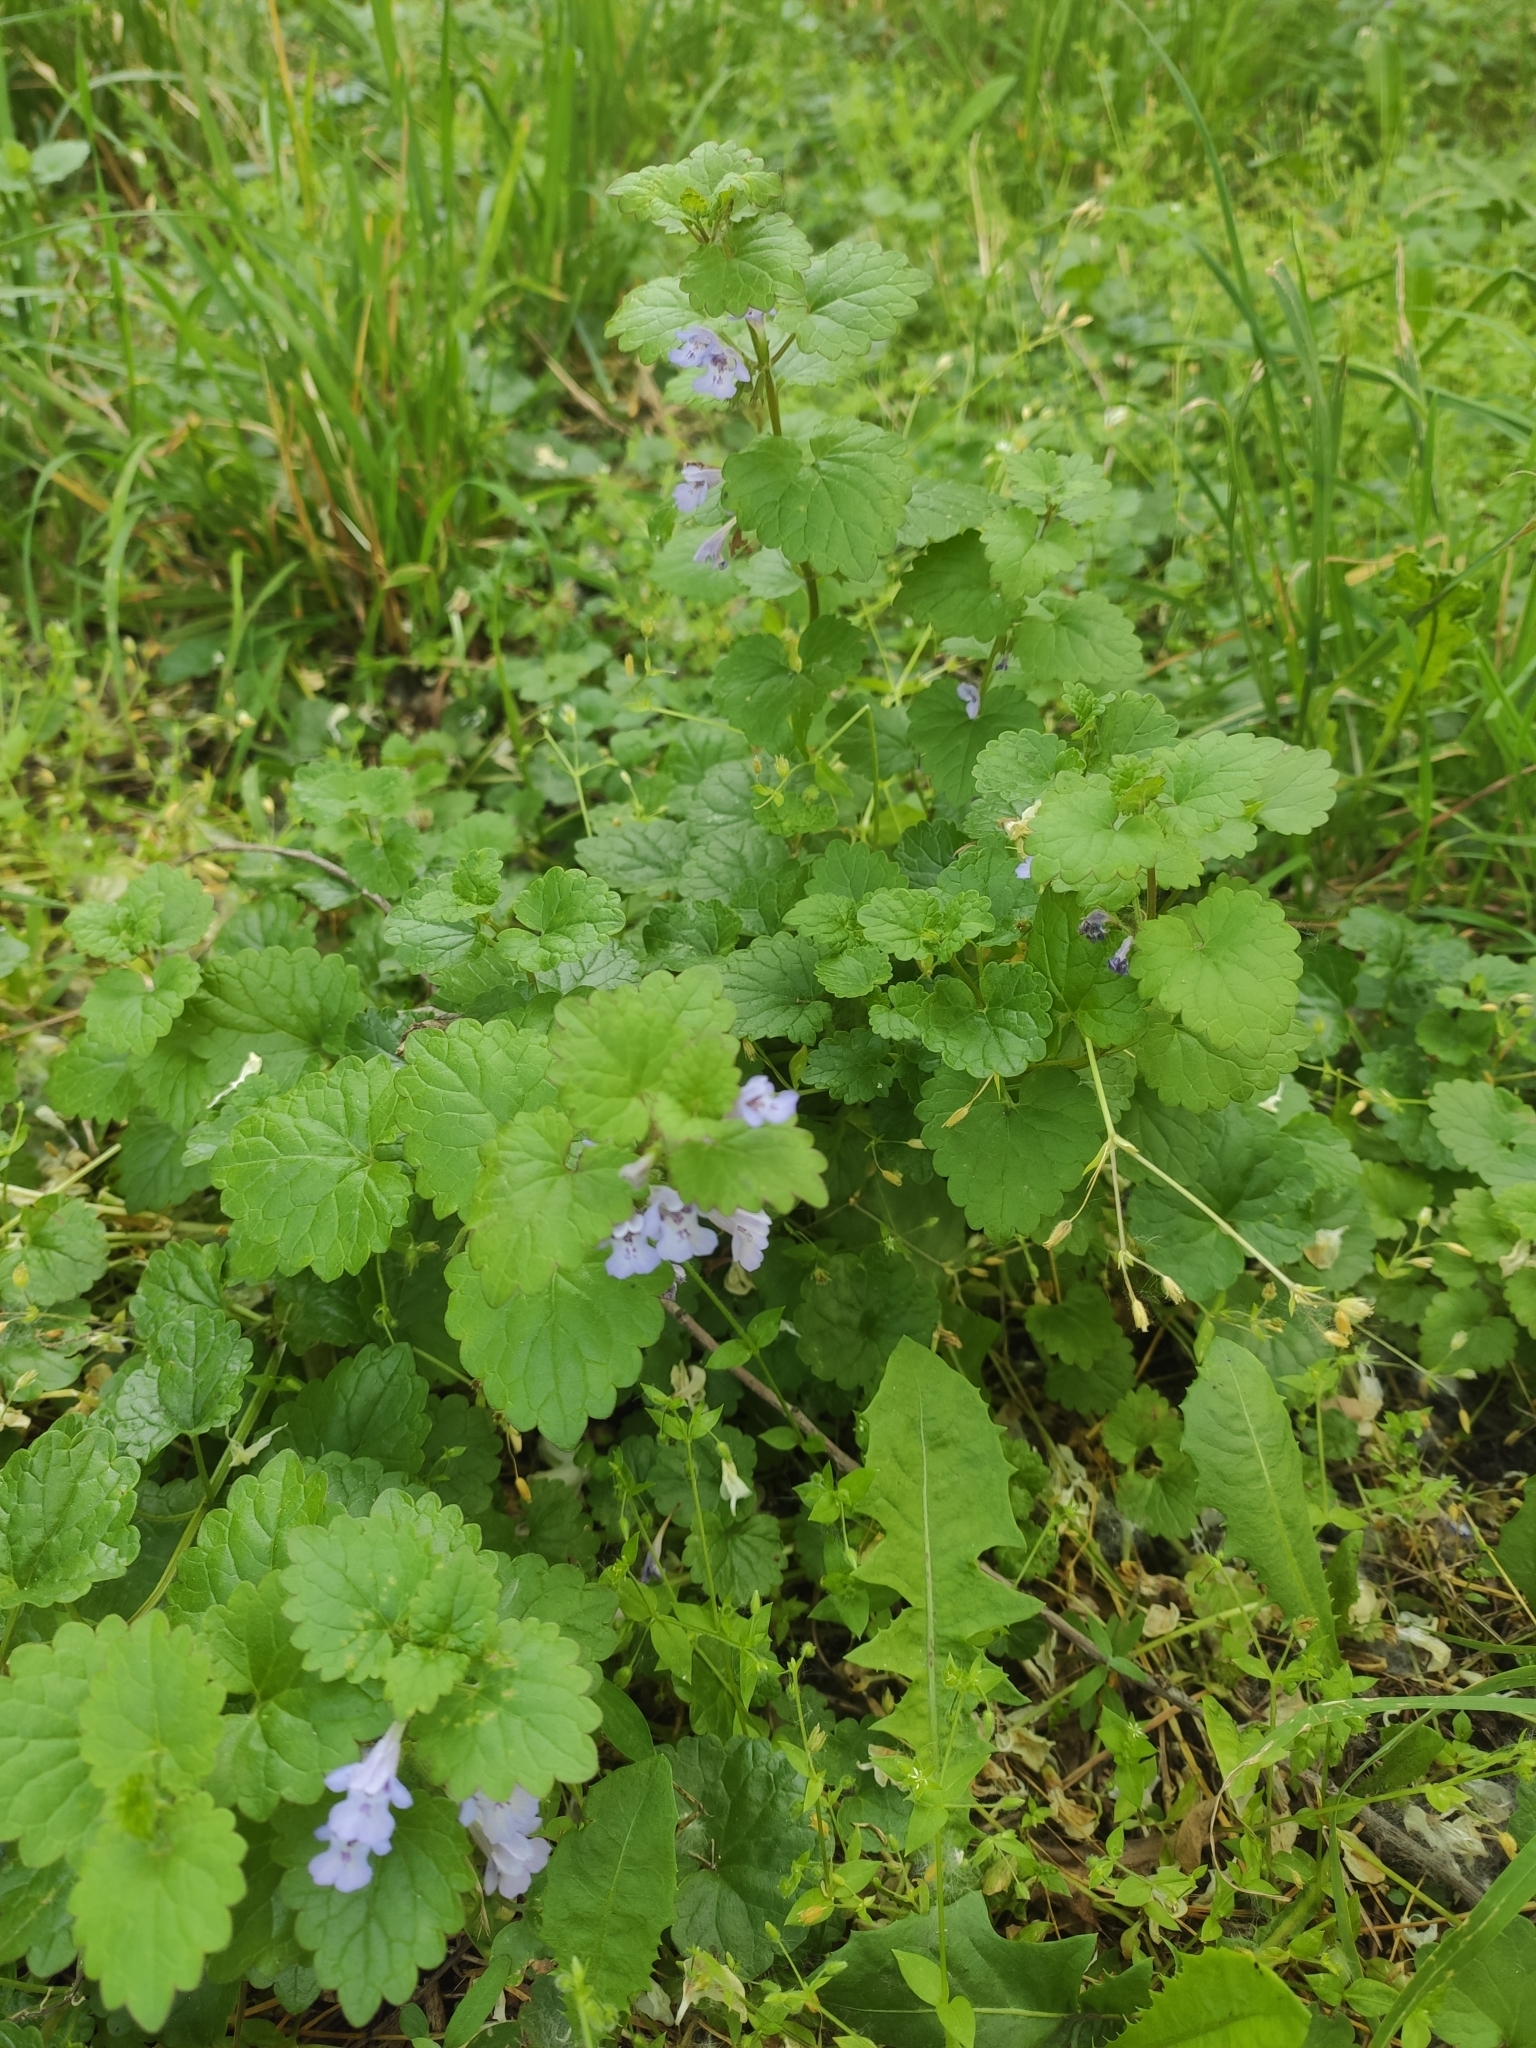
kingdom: Plantae
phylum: Tracheophyta
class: Magnoliopsida
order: Lamiales
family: Lamiaceae
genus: Glechoma
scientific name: Glechoma hederacea
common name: Ground ivy
